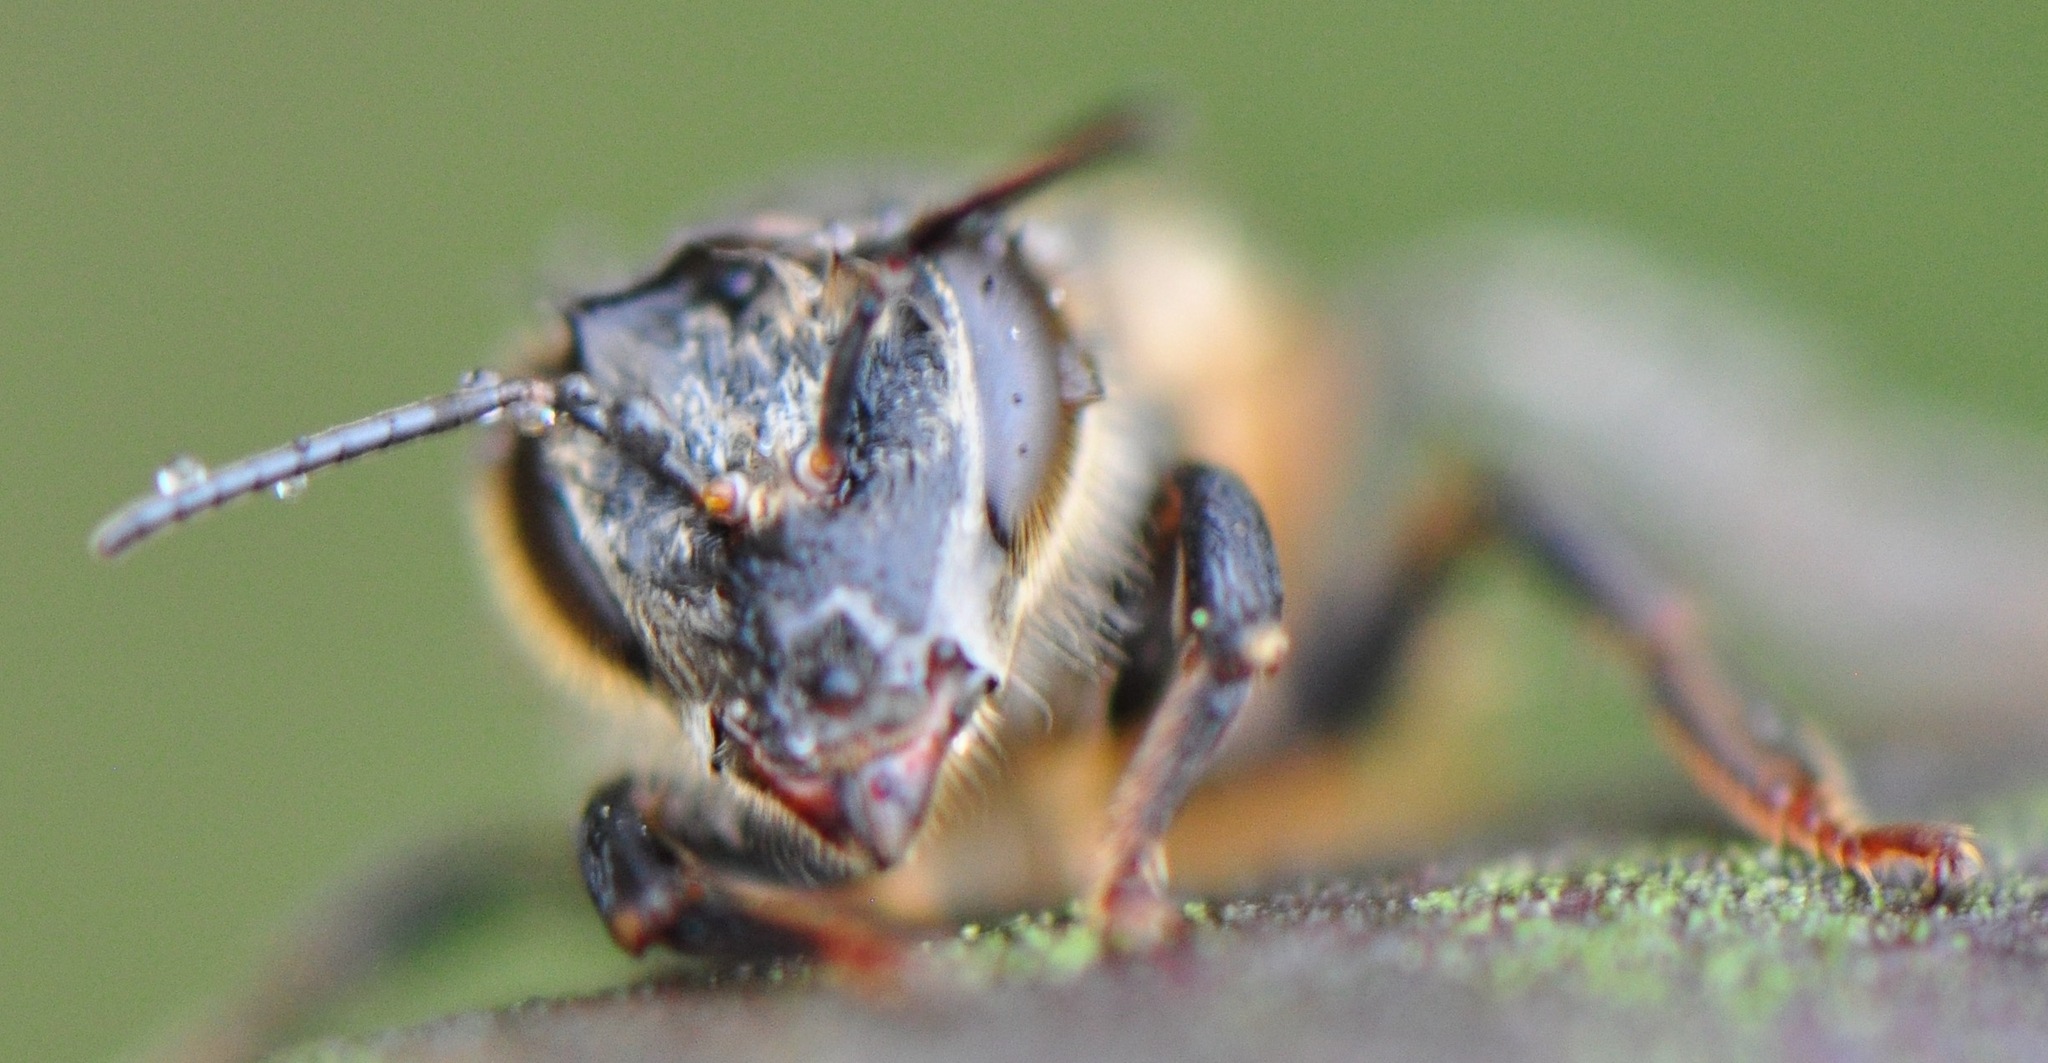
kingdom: Animalia
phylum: Arthropoda
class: Insecta
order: Hymenoptera
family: Apidae
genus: Apis
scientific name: Apis mellifera
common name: Honey bee
